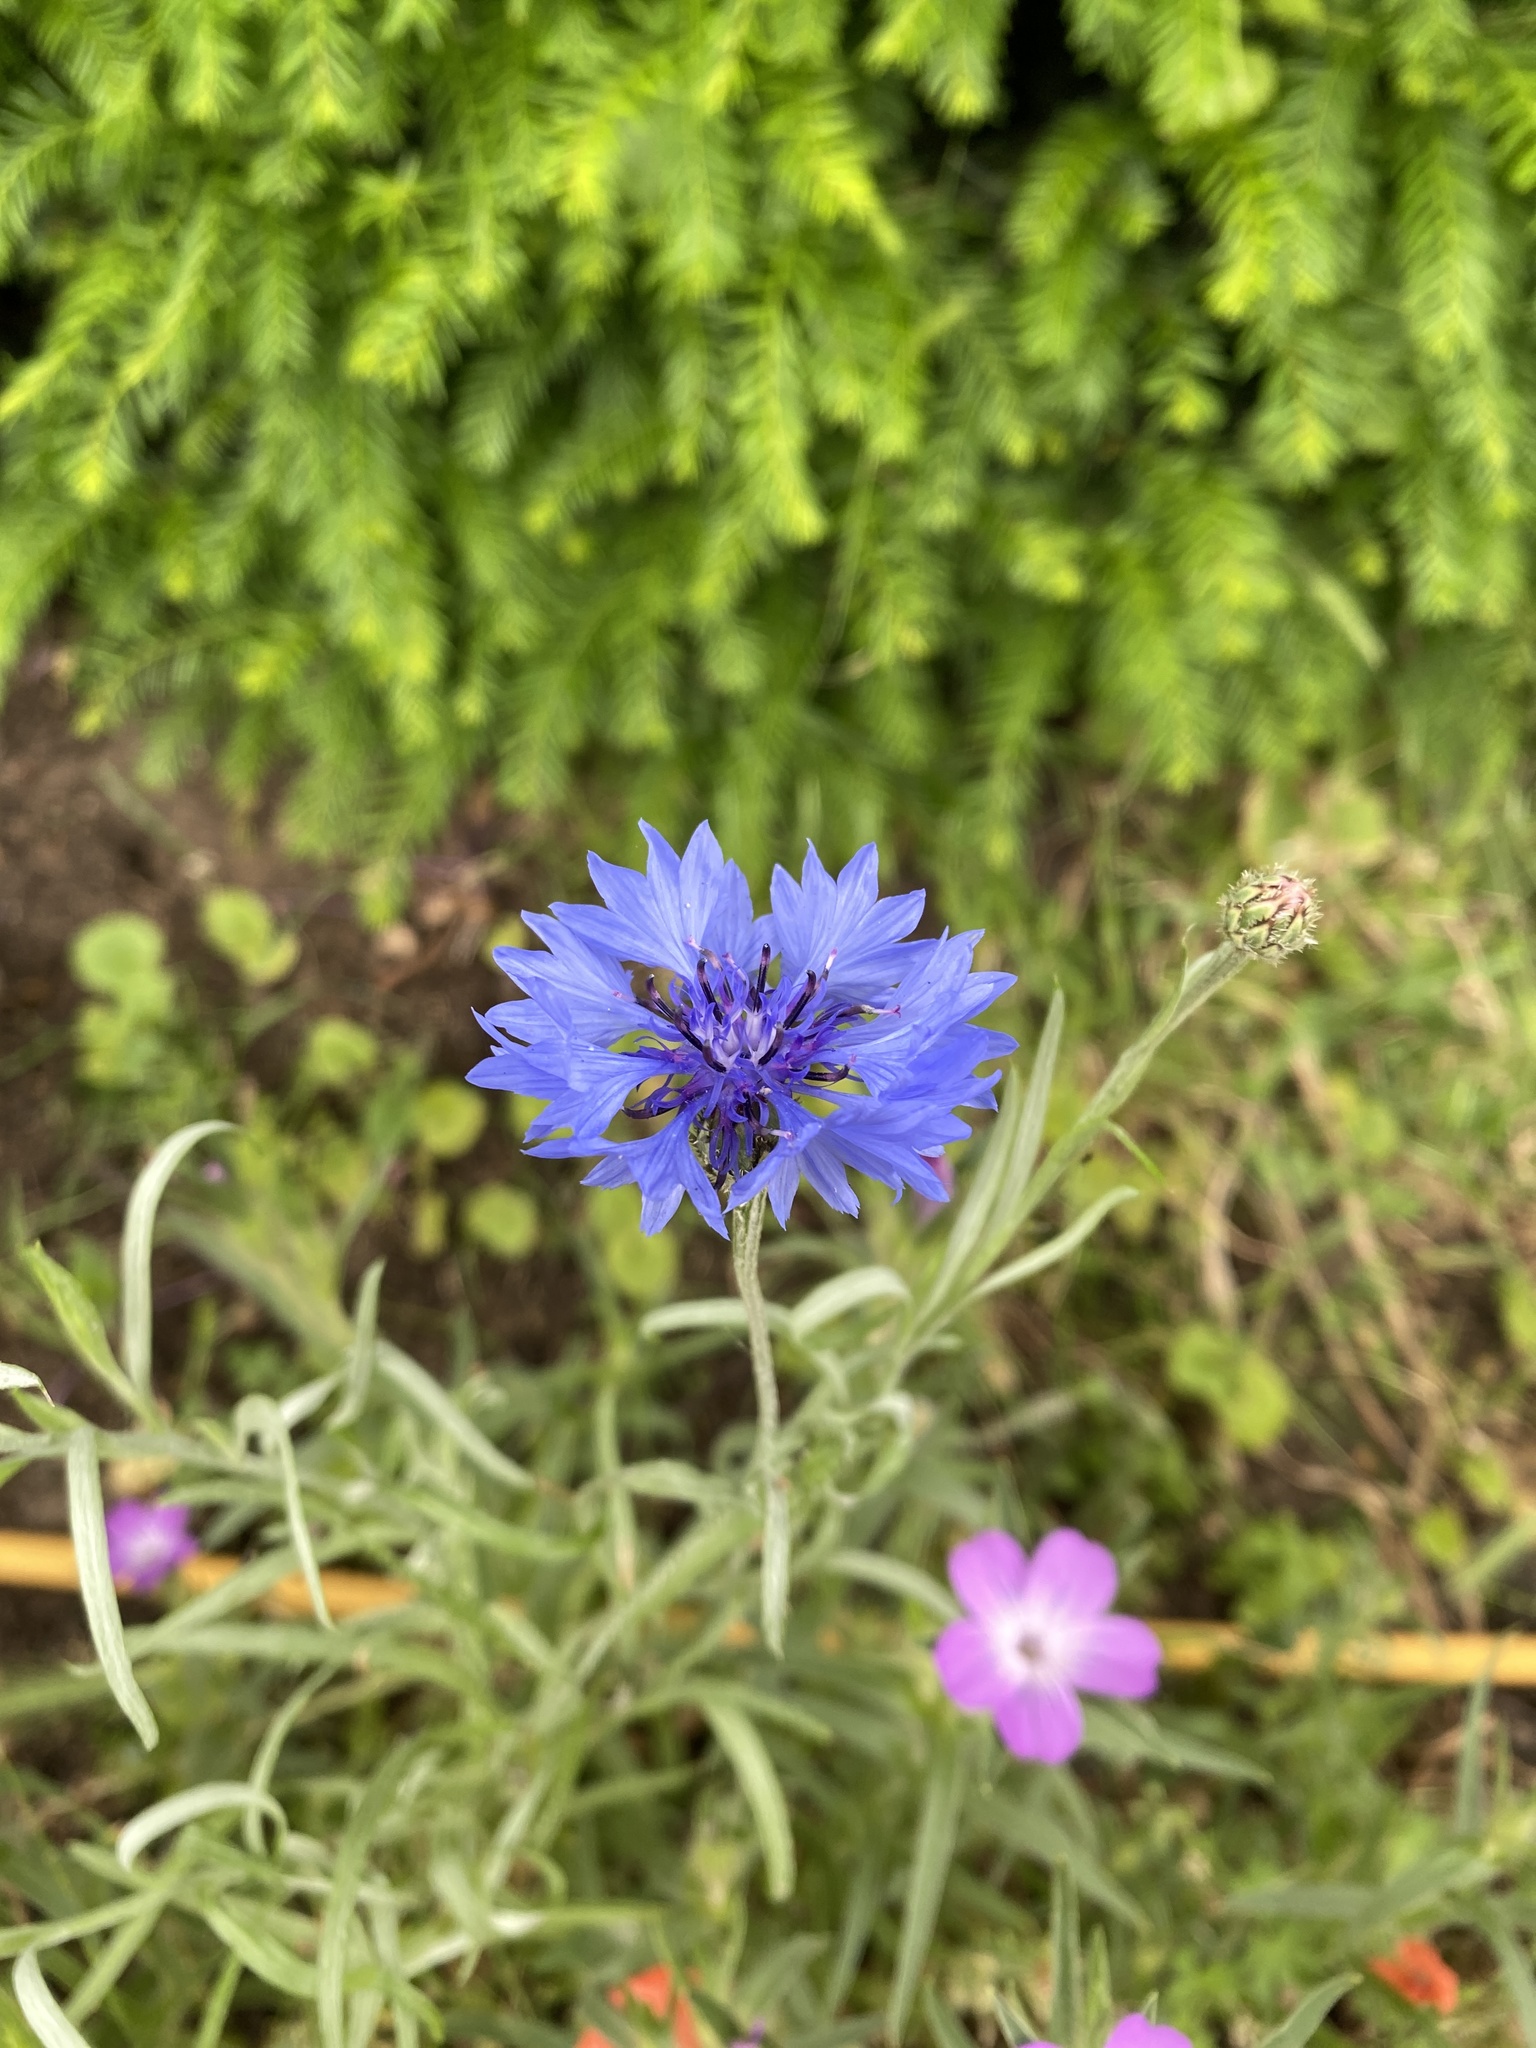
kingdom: Plantae
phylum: Tracheophyta
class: Magnoliopsida
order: Asterales
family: Asteraceae
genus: Centaurea
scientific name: Centaurea cyanus
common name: Cornflower
